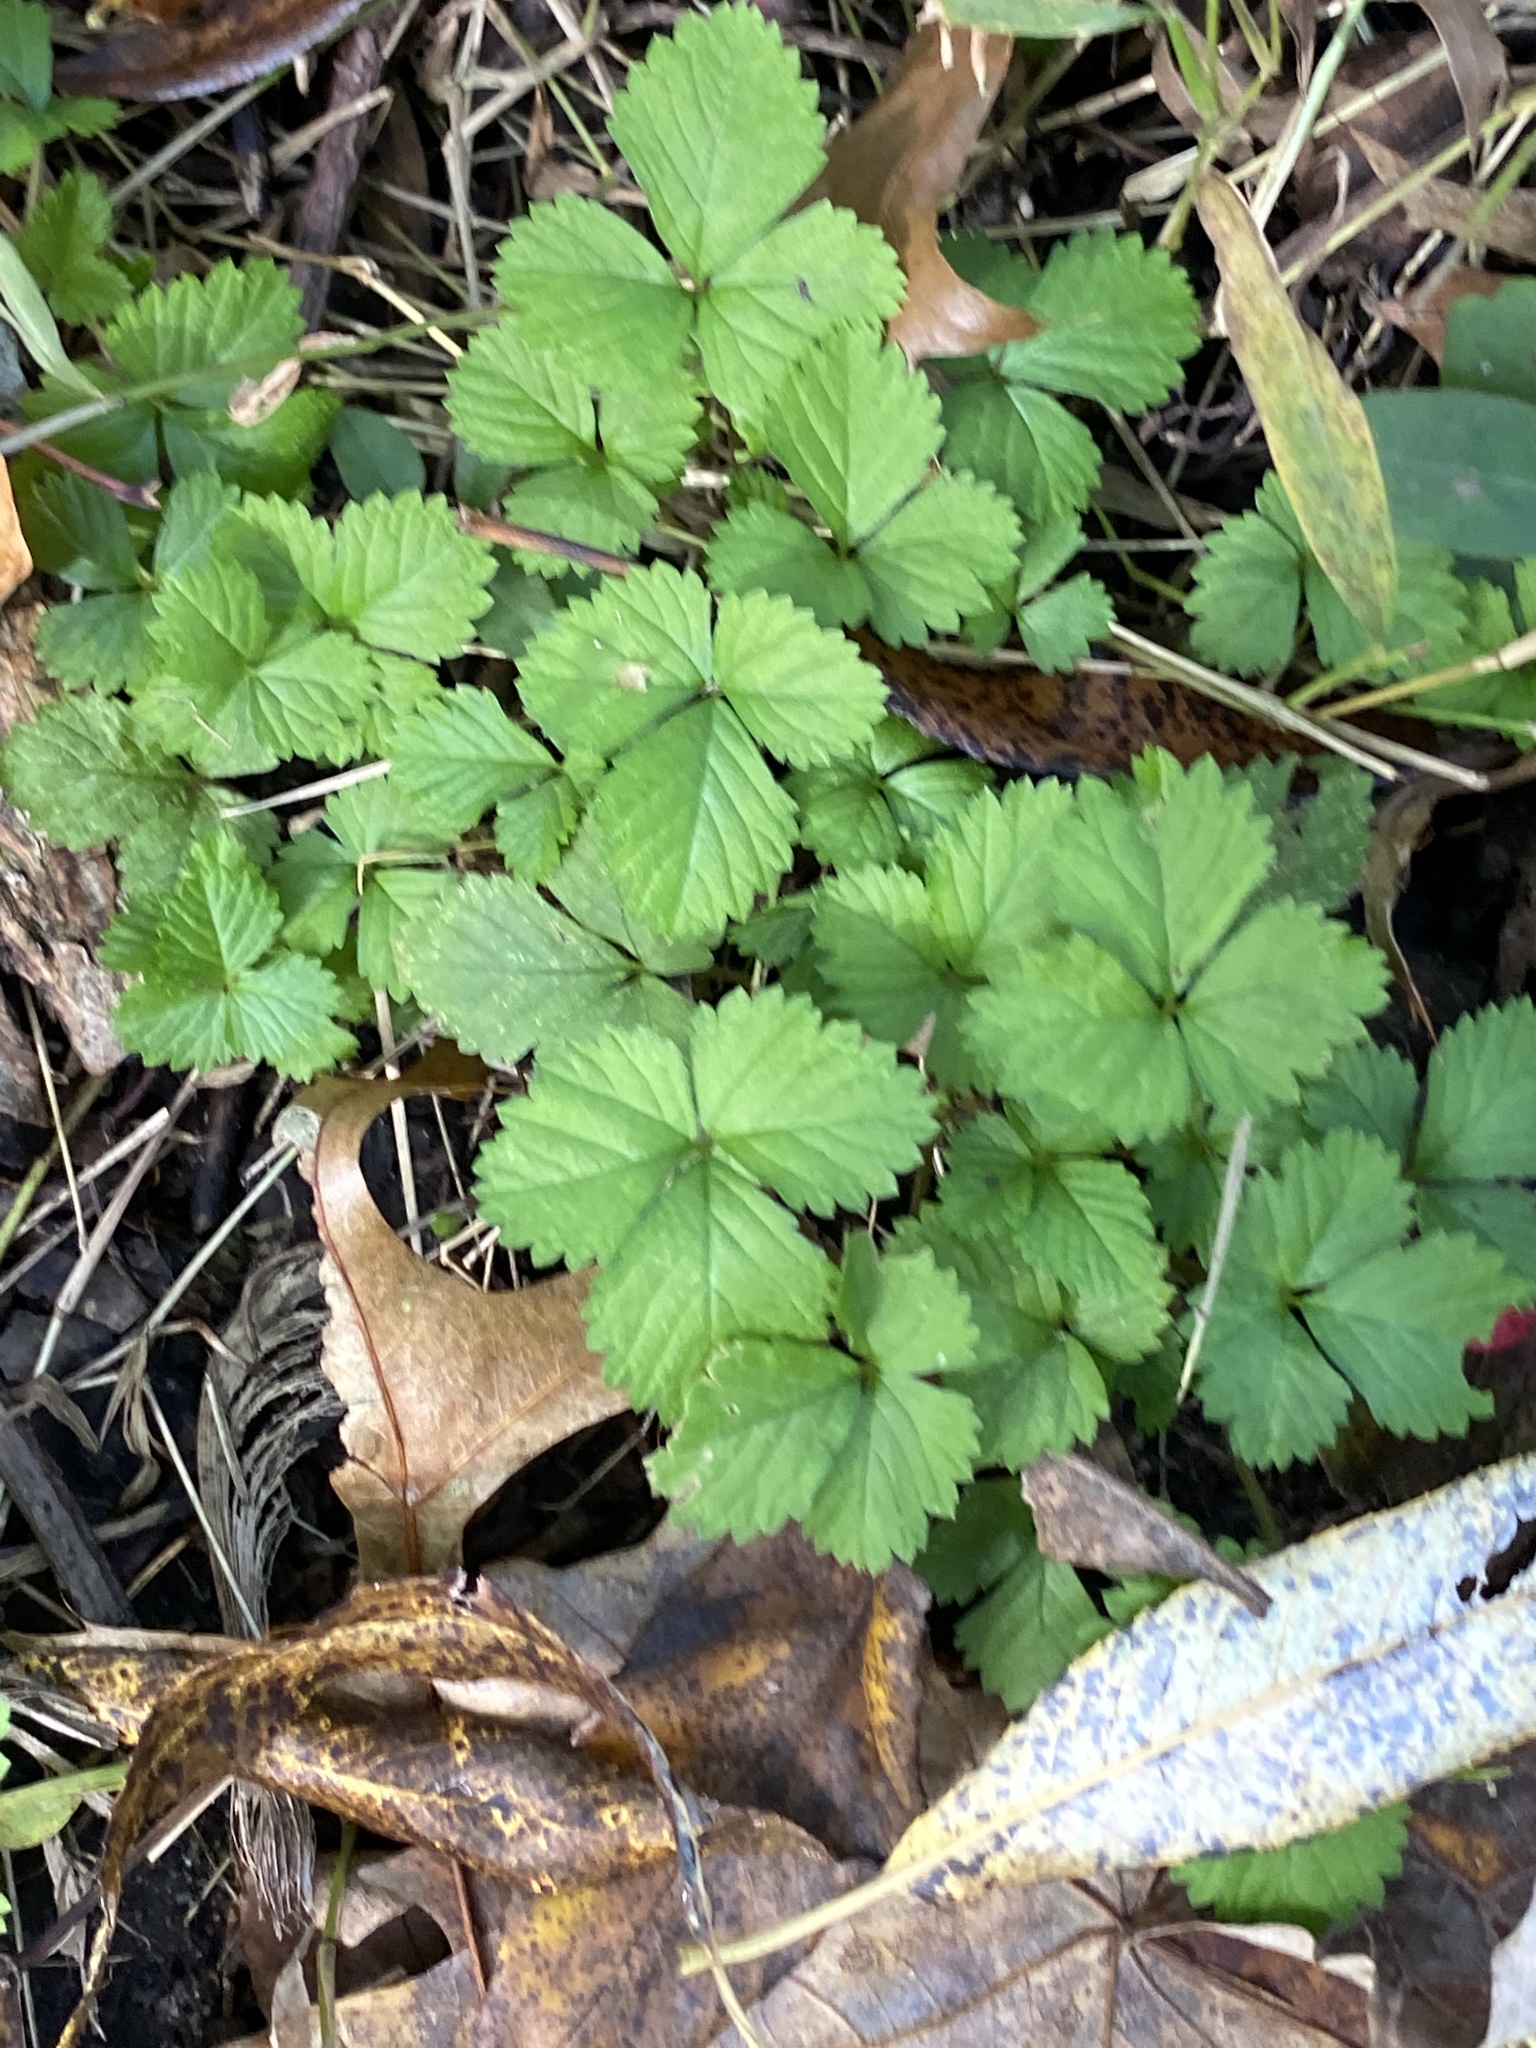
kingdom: Plantae
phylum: Tracheophyta
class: Magnoliopsida
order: Rosales
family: Rosaceae
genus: Potentilla
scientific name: Potentilla indica
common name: Yellow-flowered strawberry
